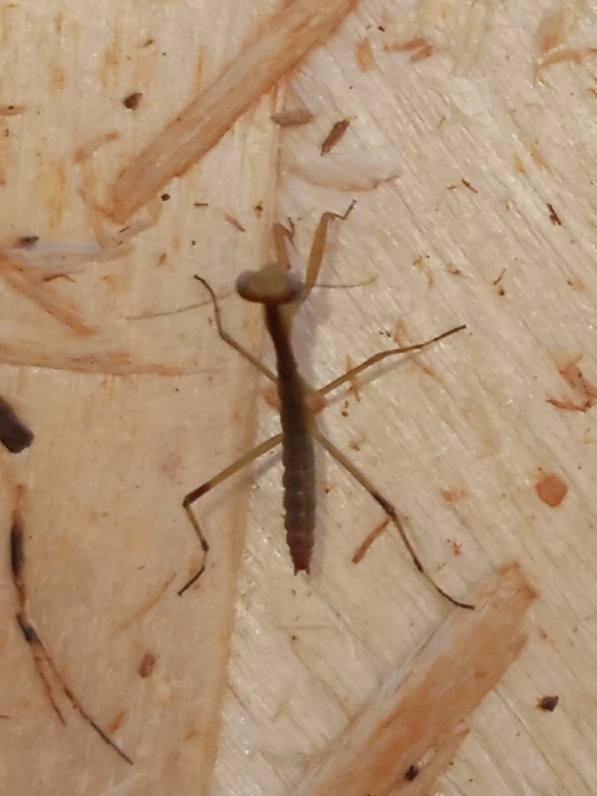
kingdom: Animalia
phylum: Arthropoda
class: Insecta
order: Mantodea
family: Mantidae
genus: Stagmomantis
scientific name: Stagmomantis carolina
